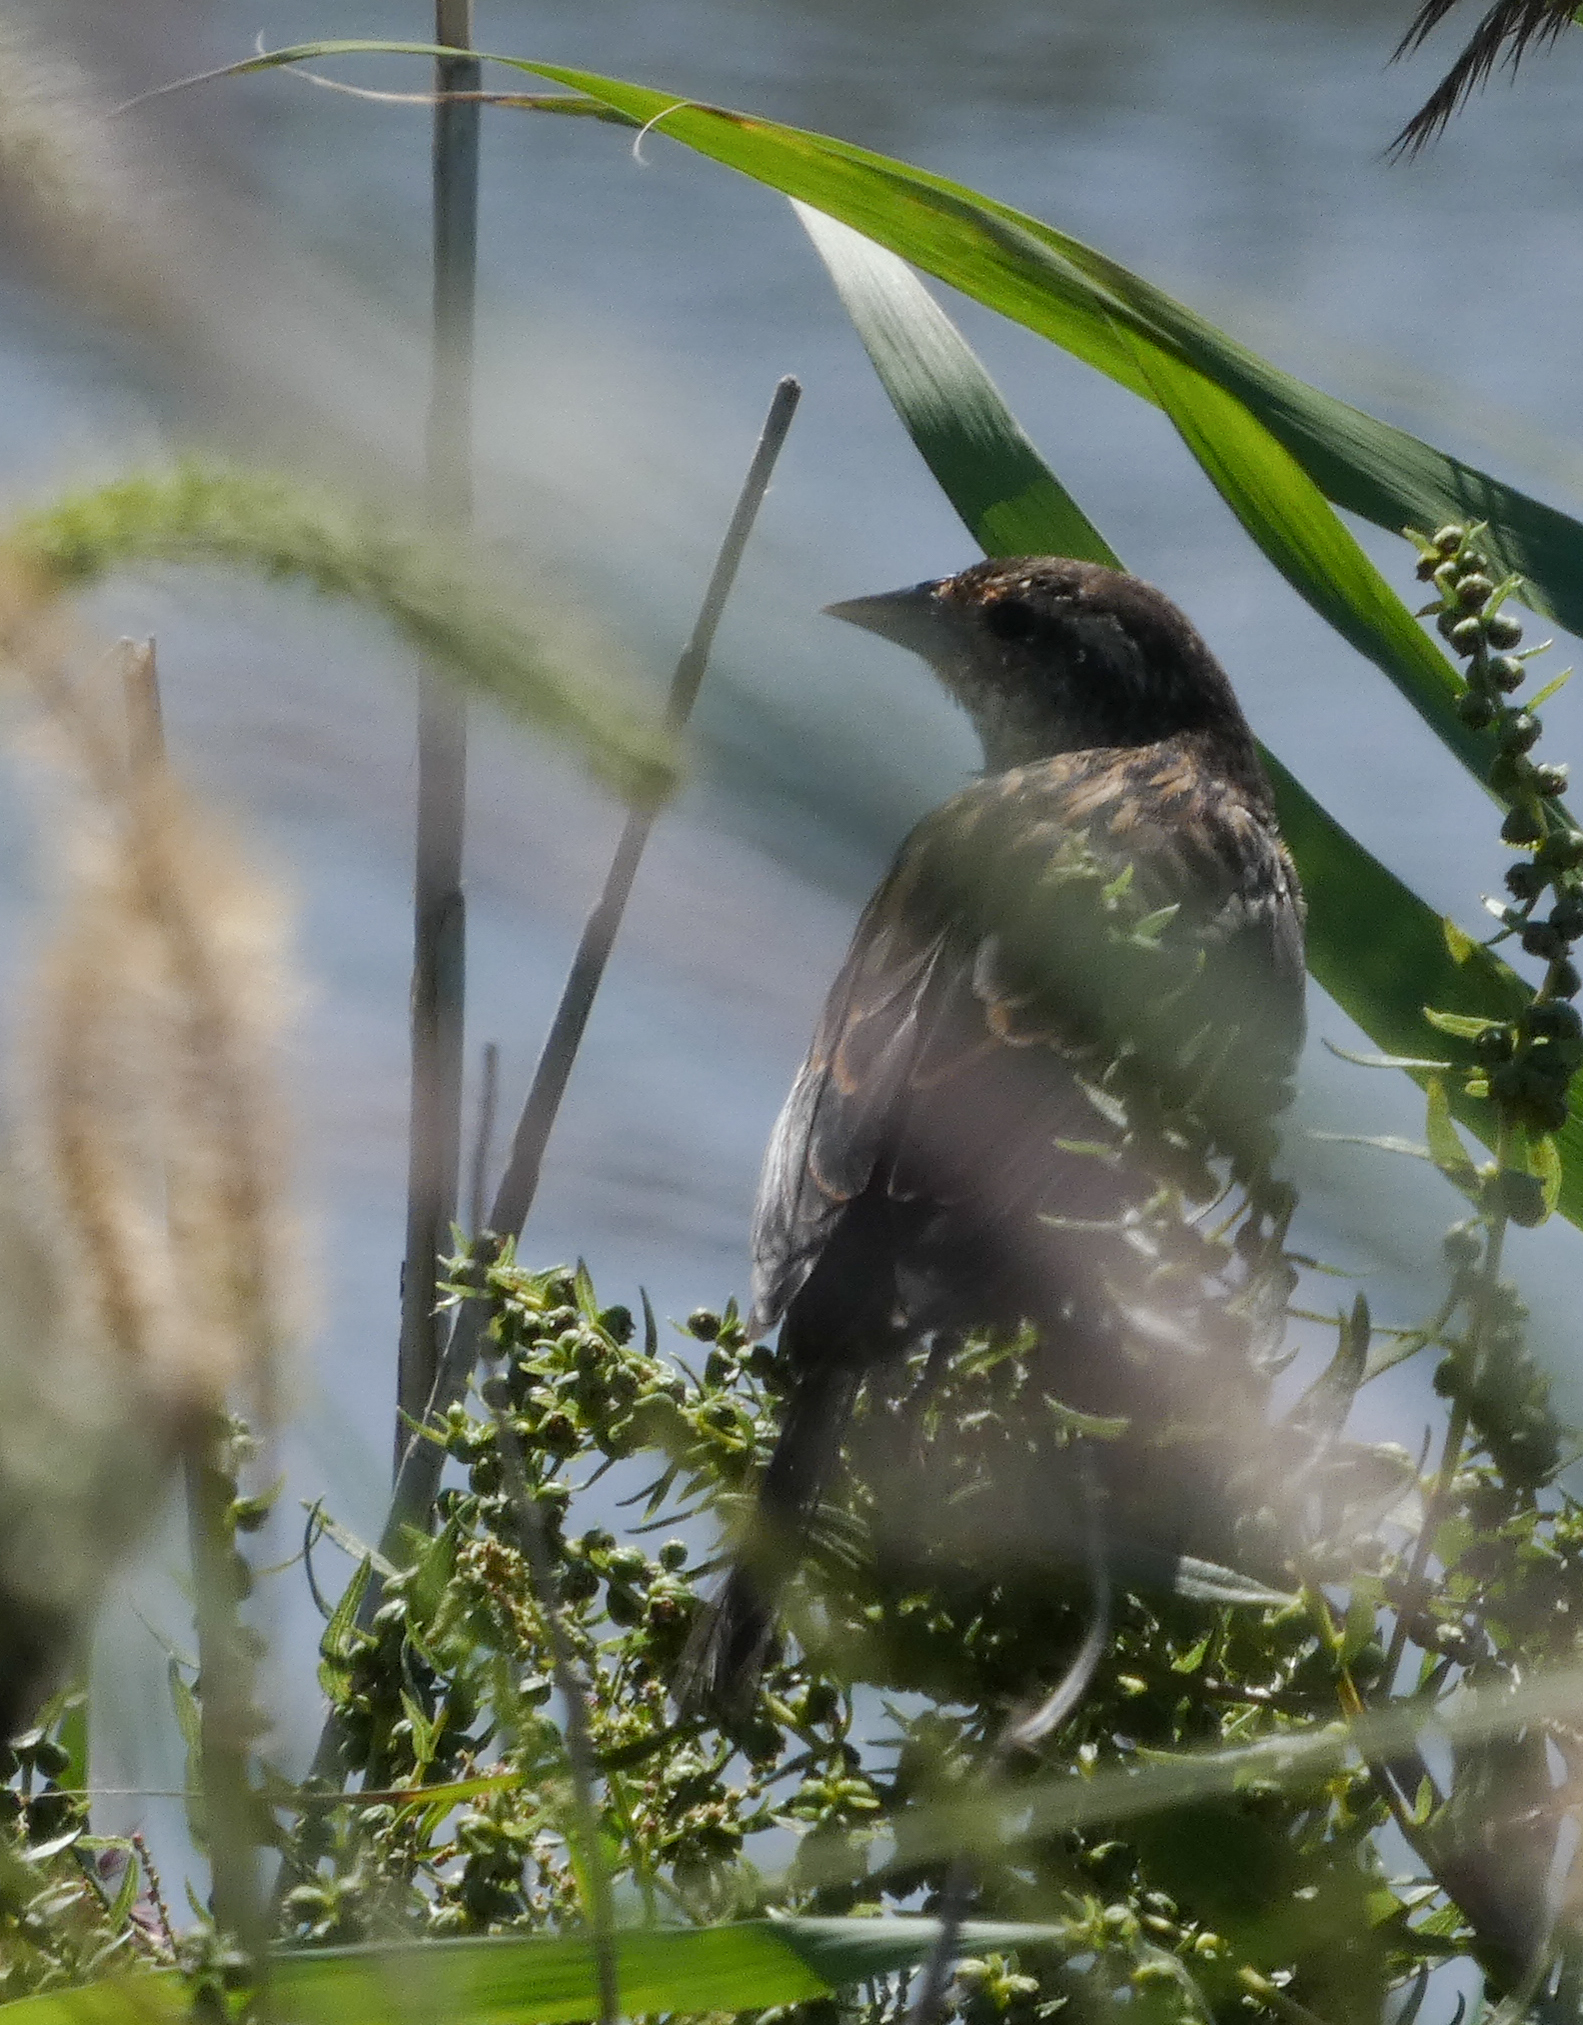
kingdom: Animalia
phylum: Chordata
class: Aves
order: Passeriformes
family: Icteridae
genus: Agelaius
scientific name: Agelaius phoeniceus
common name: Red-winged blackbird
